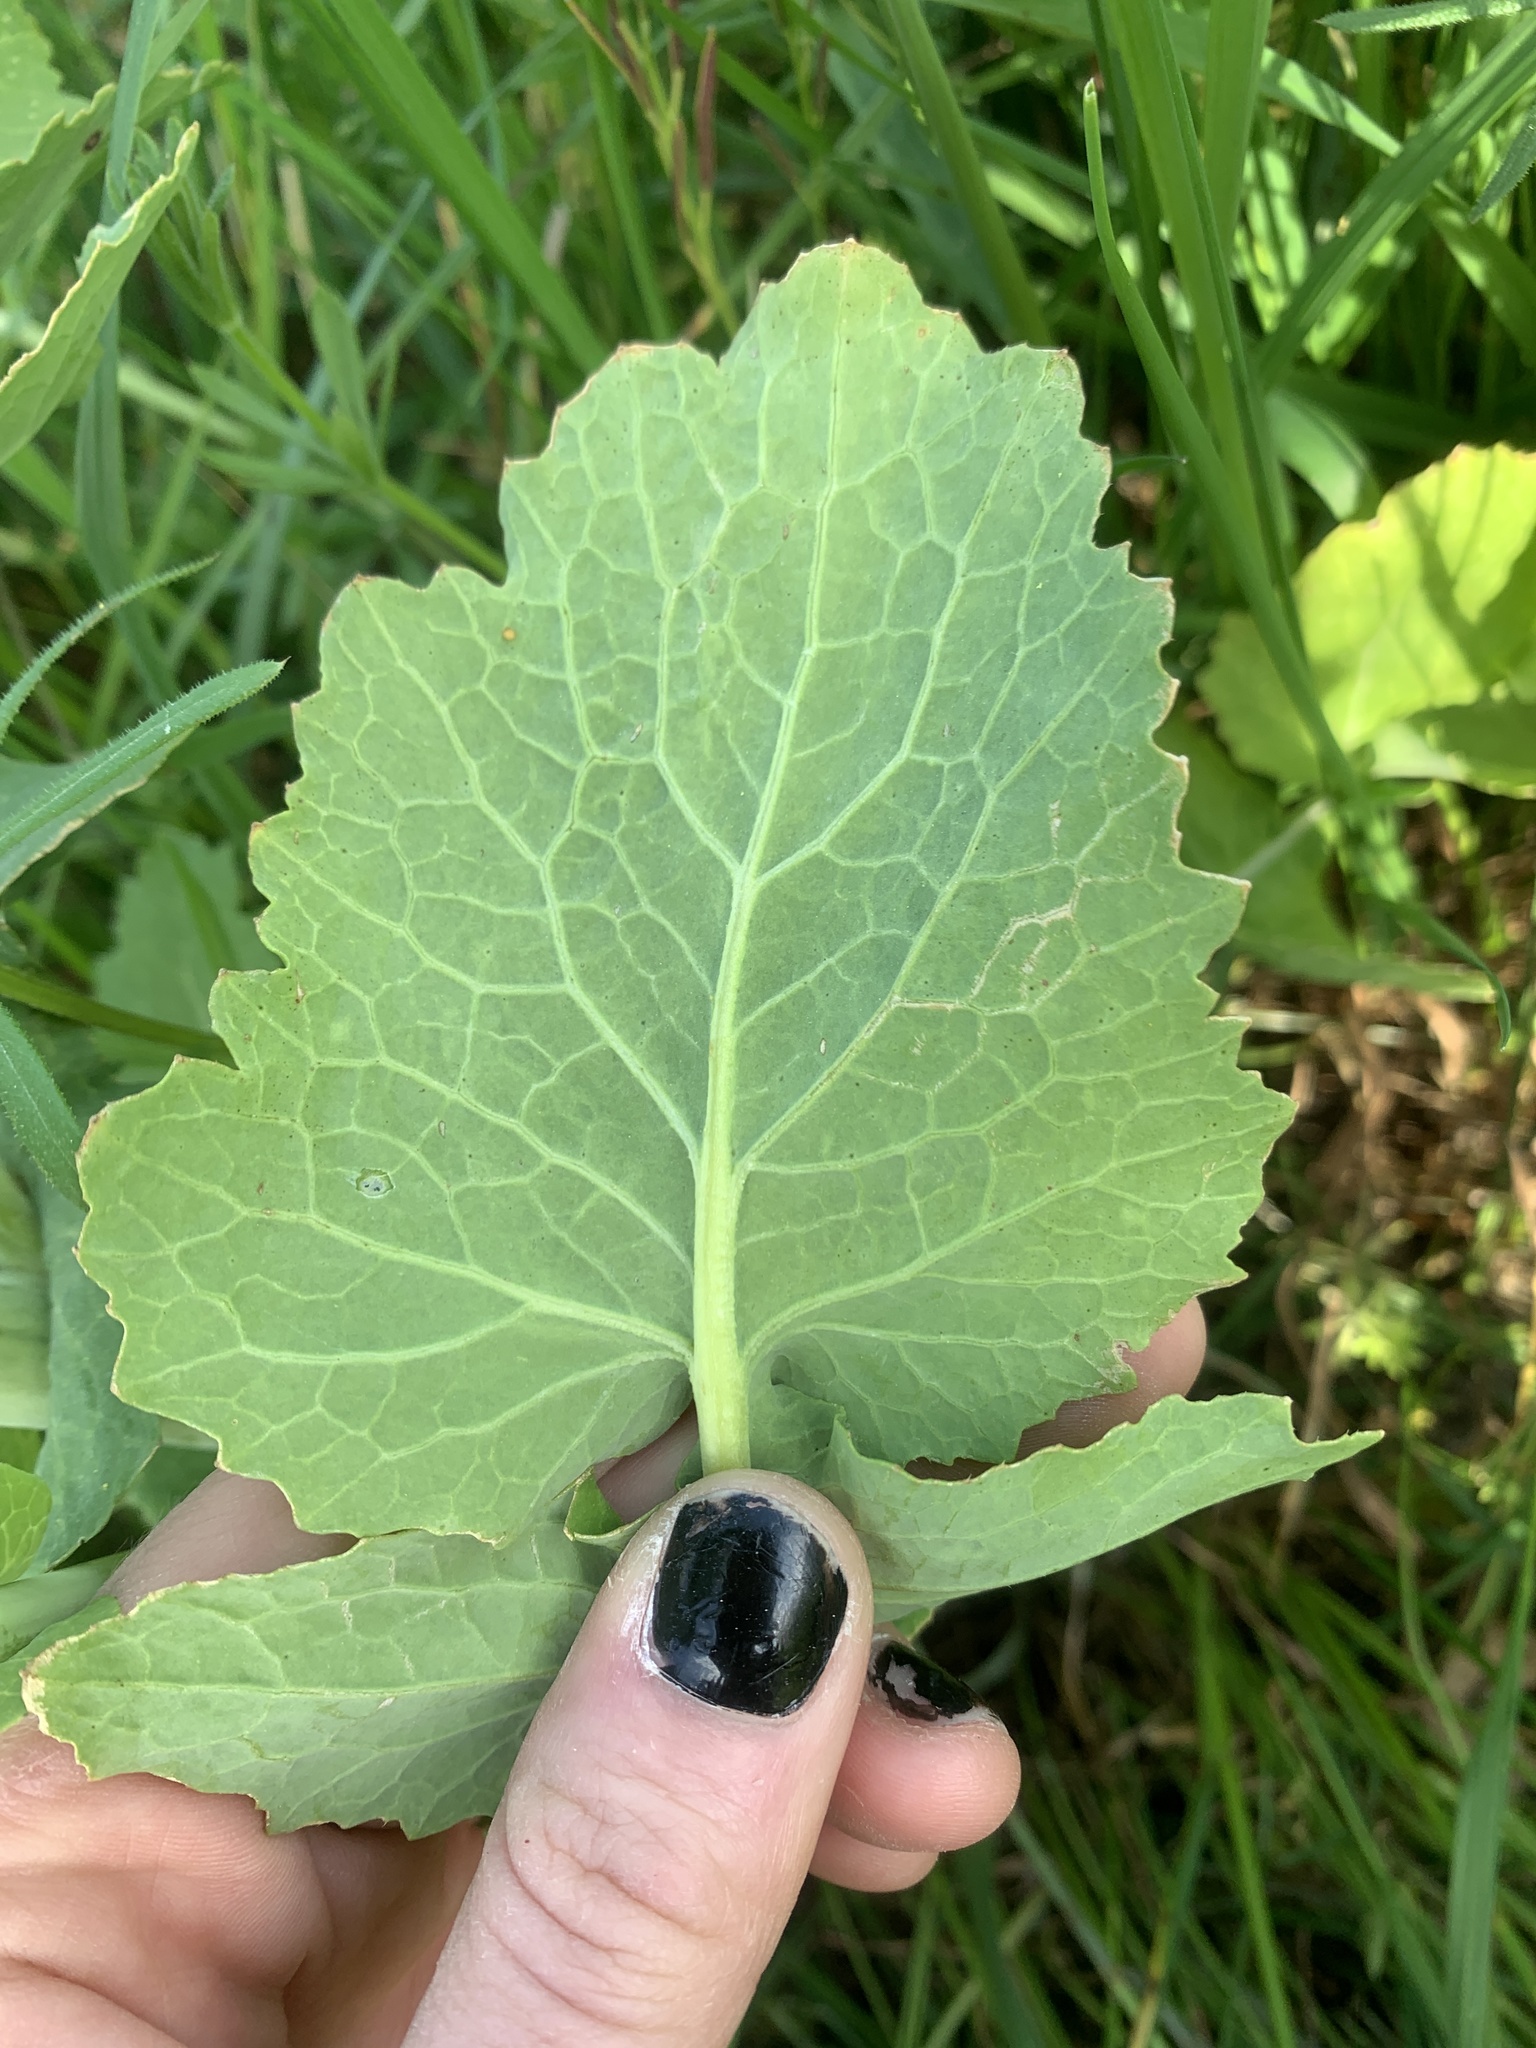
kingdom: Plantae
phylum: Tracheophyta
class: Magnoliopsida
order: Brassicales
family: Brassicaceae
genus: Brassica
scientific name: Brassica rapa
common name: Field mustard
